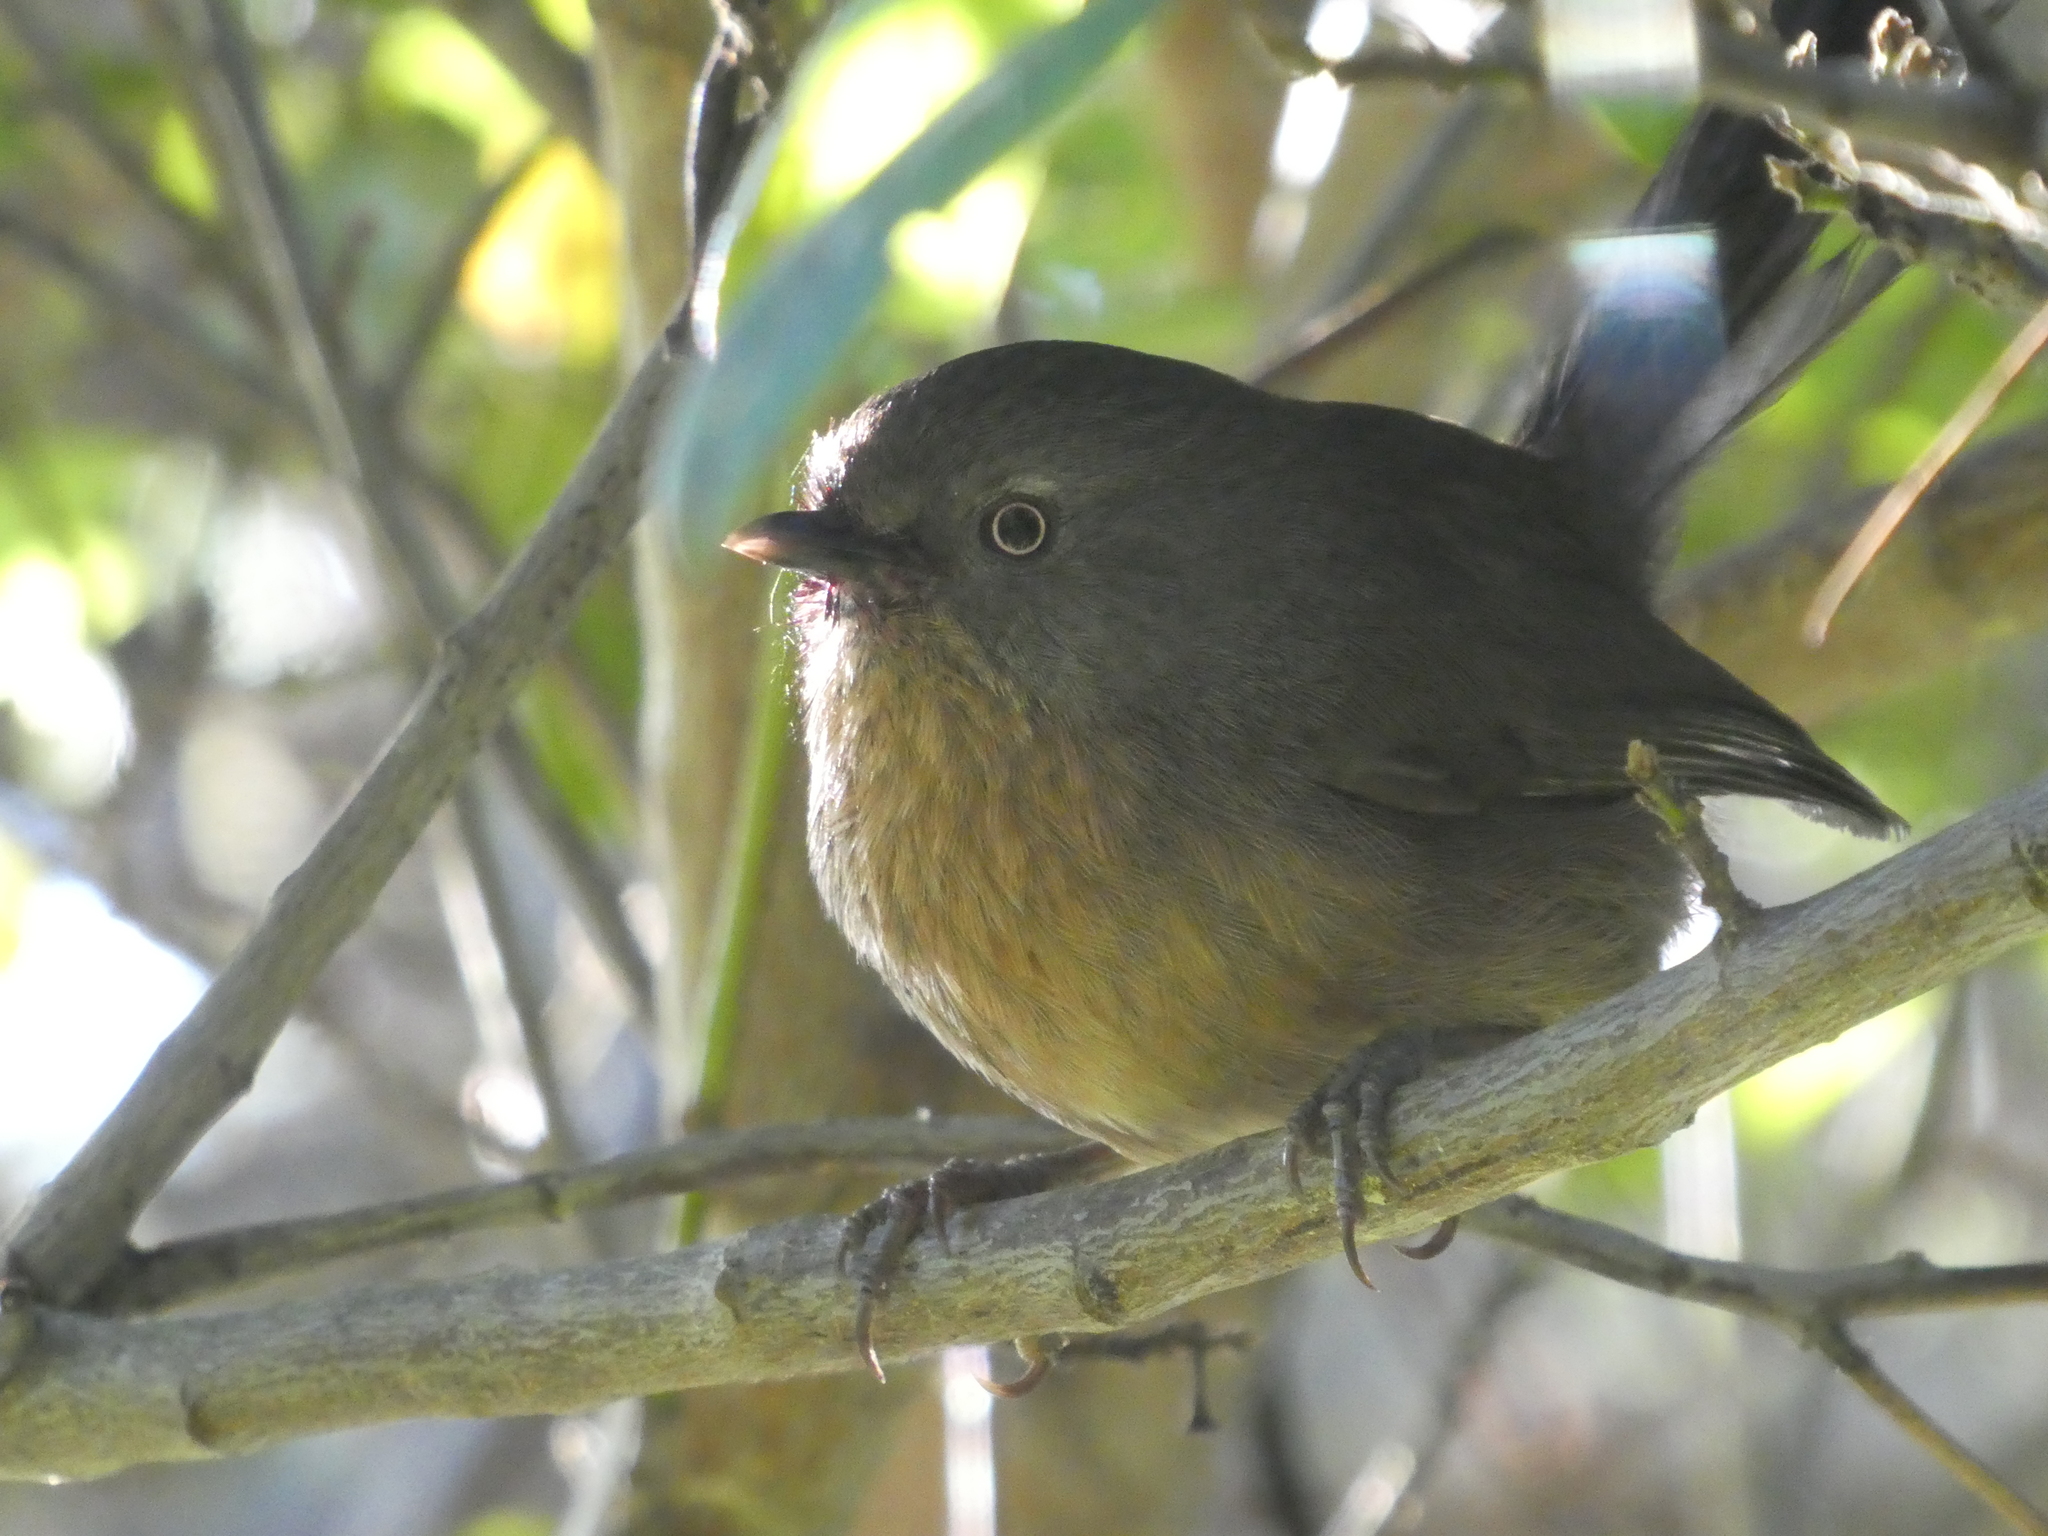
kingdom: Animalia
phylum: Chordata
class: Aves
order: Passeriformes
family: Sylviidae
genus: Chamaea
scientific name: Chamaea fasciata
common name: Wrentit
